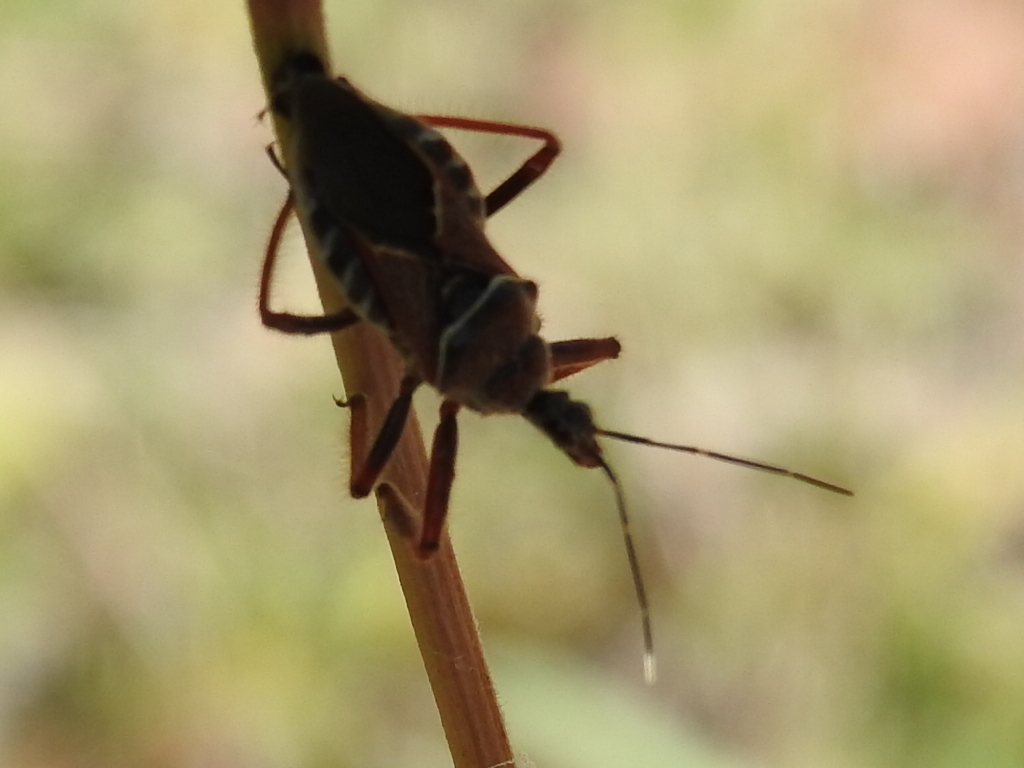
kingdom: Animalia
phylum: Arthropoda
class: Insecta
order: Hemiptera
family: Reduviidae
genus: Apiomerus
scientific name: Apiomerus spissipes
